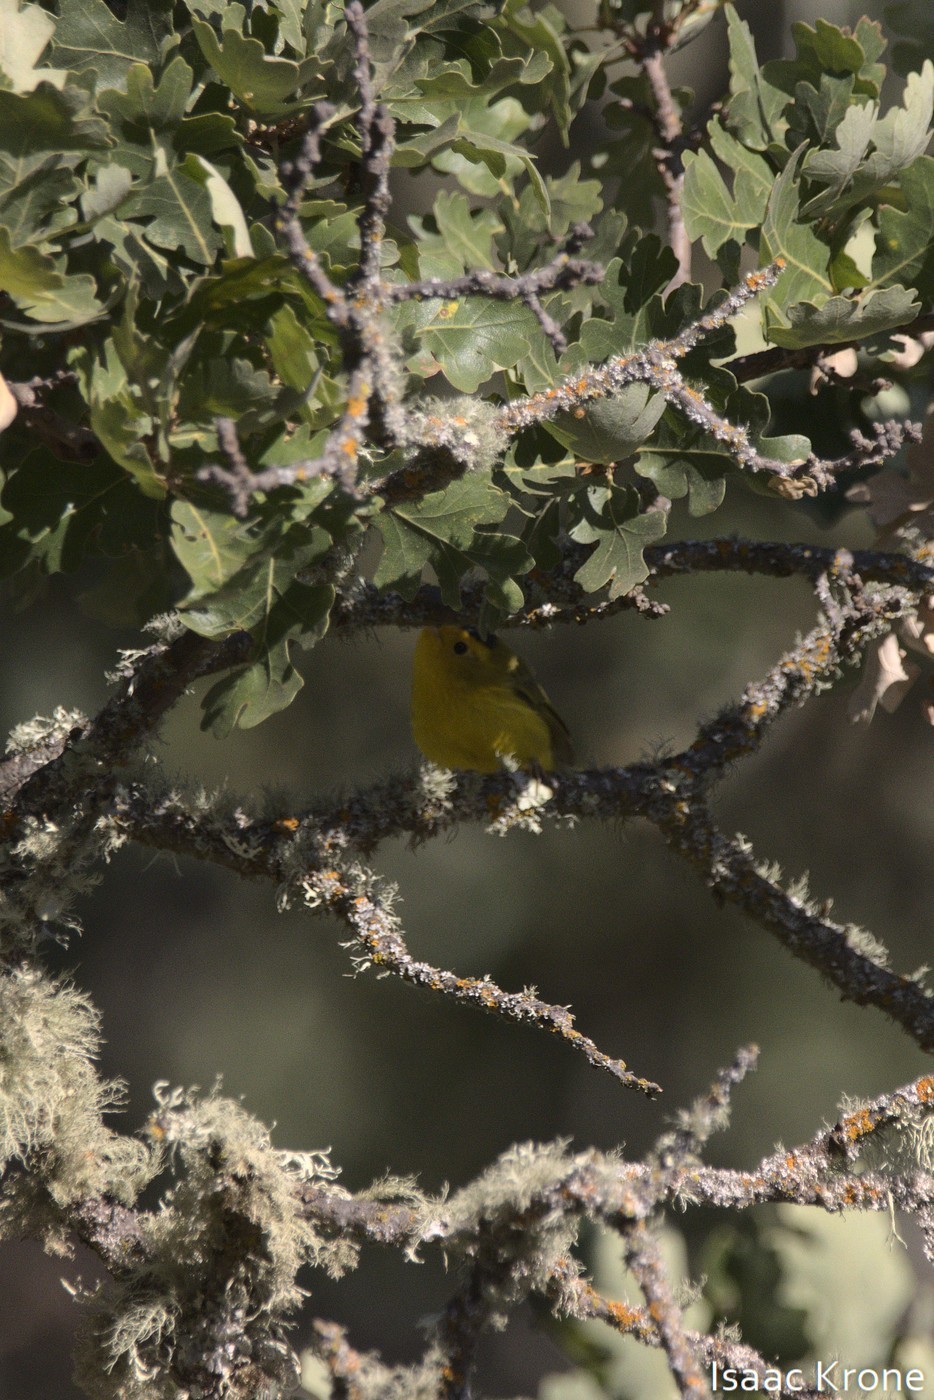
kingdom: Animalia
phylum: Chordata
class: Aves
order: Passeriformes
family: Parulidae
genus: Cardellina
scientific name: Cardellina pusilla
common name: Wilson's warbler
